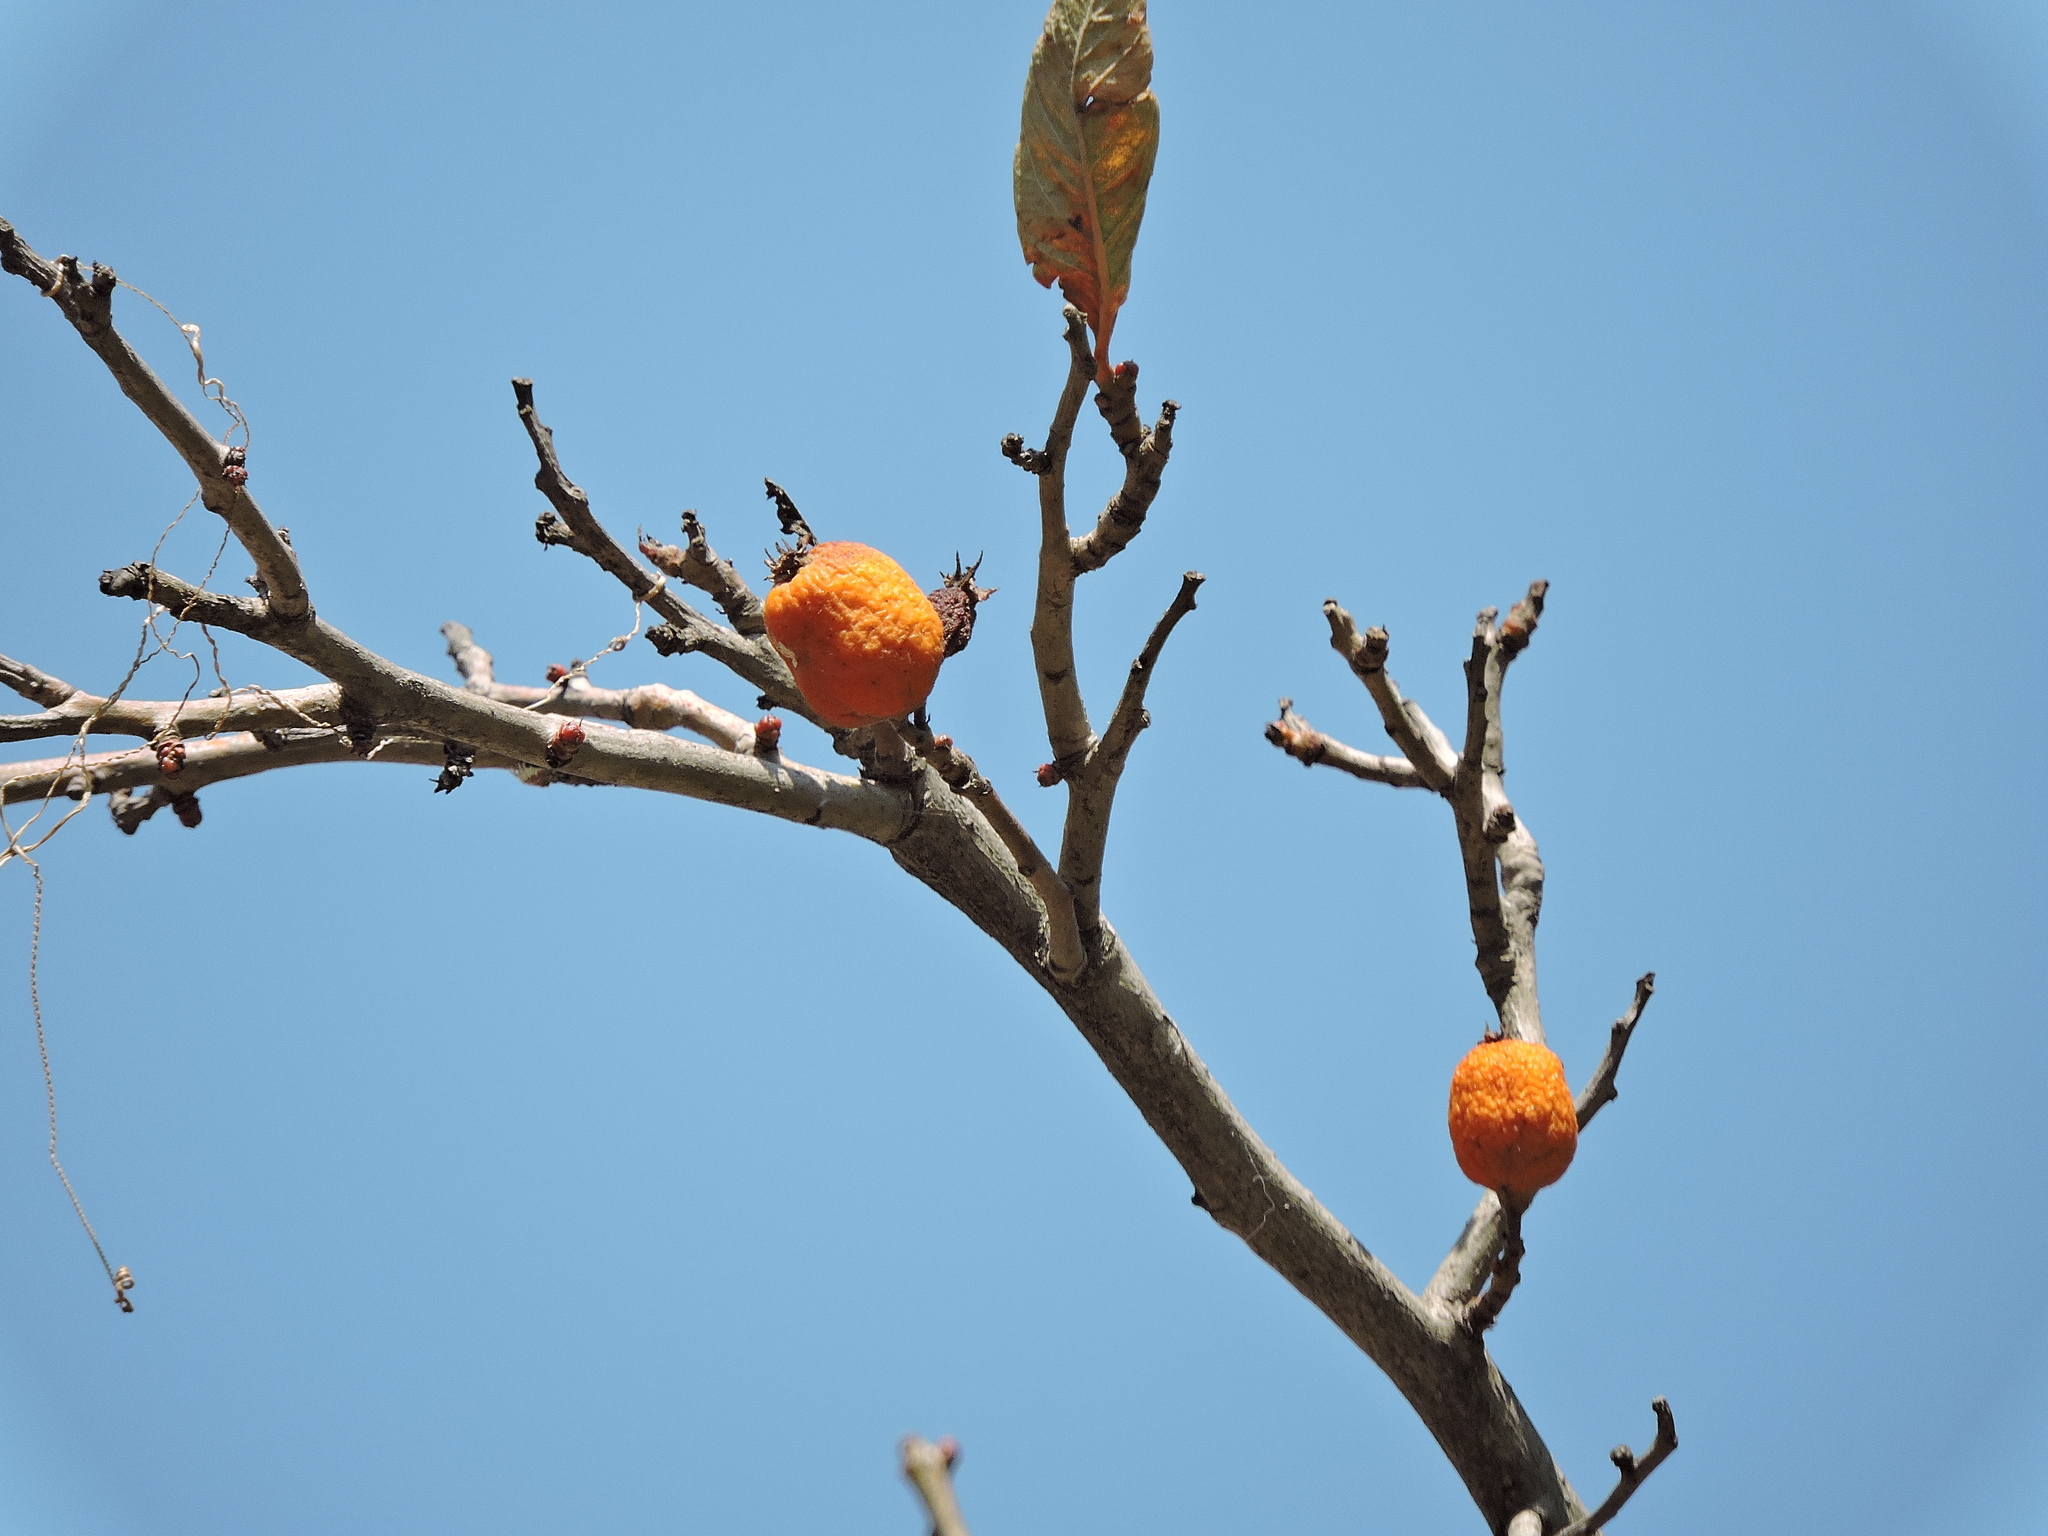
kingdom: Plantae
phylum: Tracheophyta
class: Magnoliopsida
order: Rosales
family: Rosaceae
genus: Crataegus
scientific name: Crataegus mexicana
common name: Mexican hawthorn
